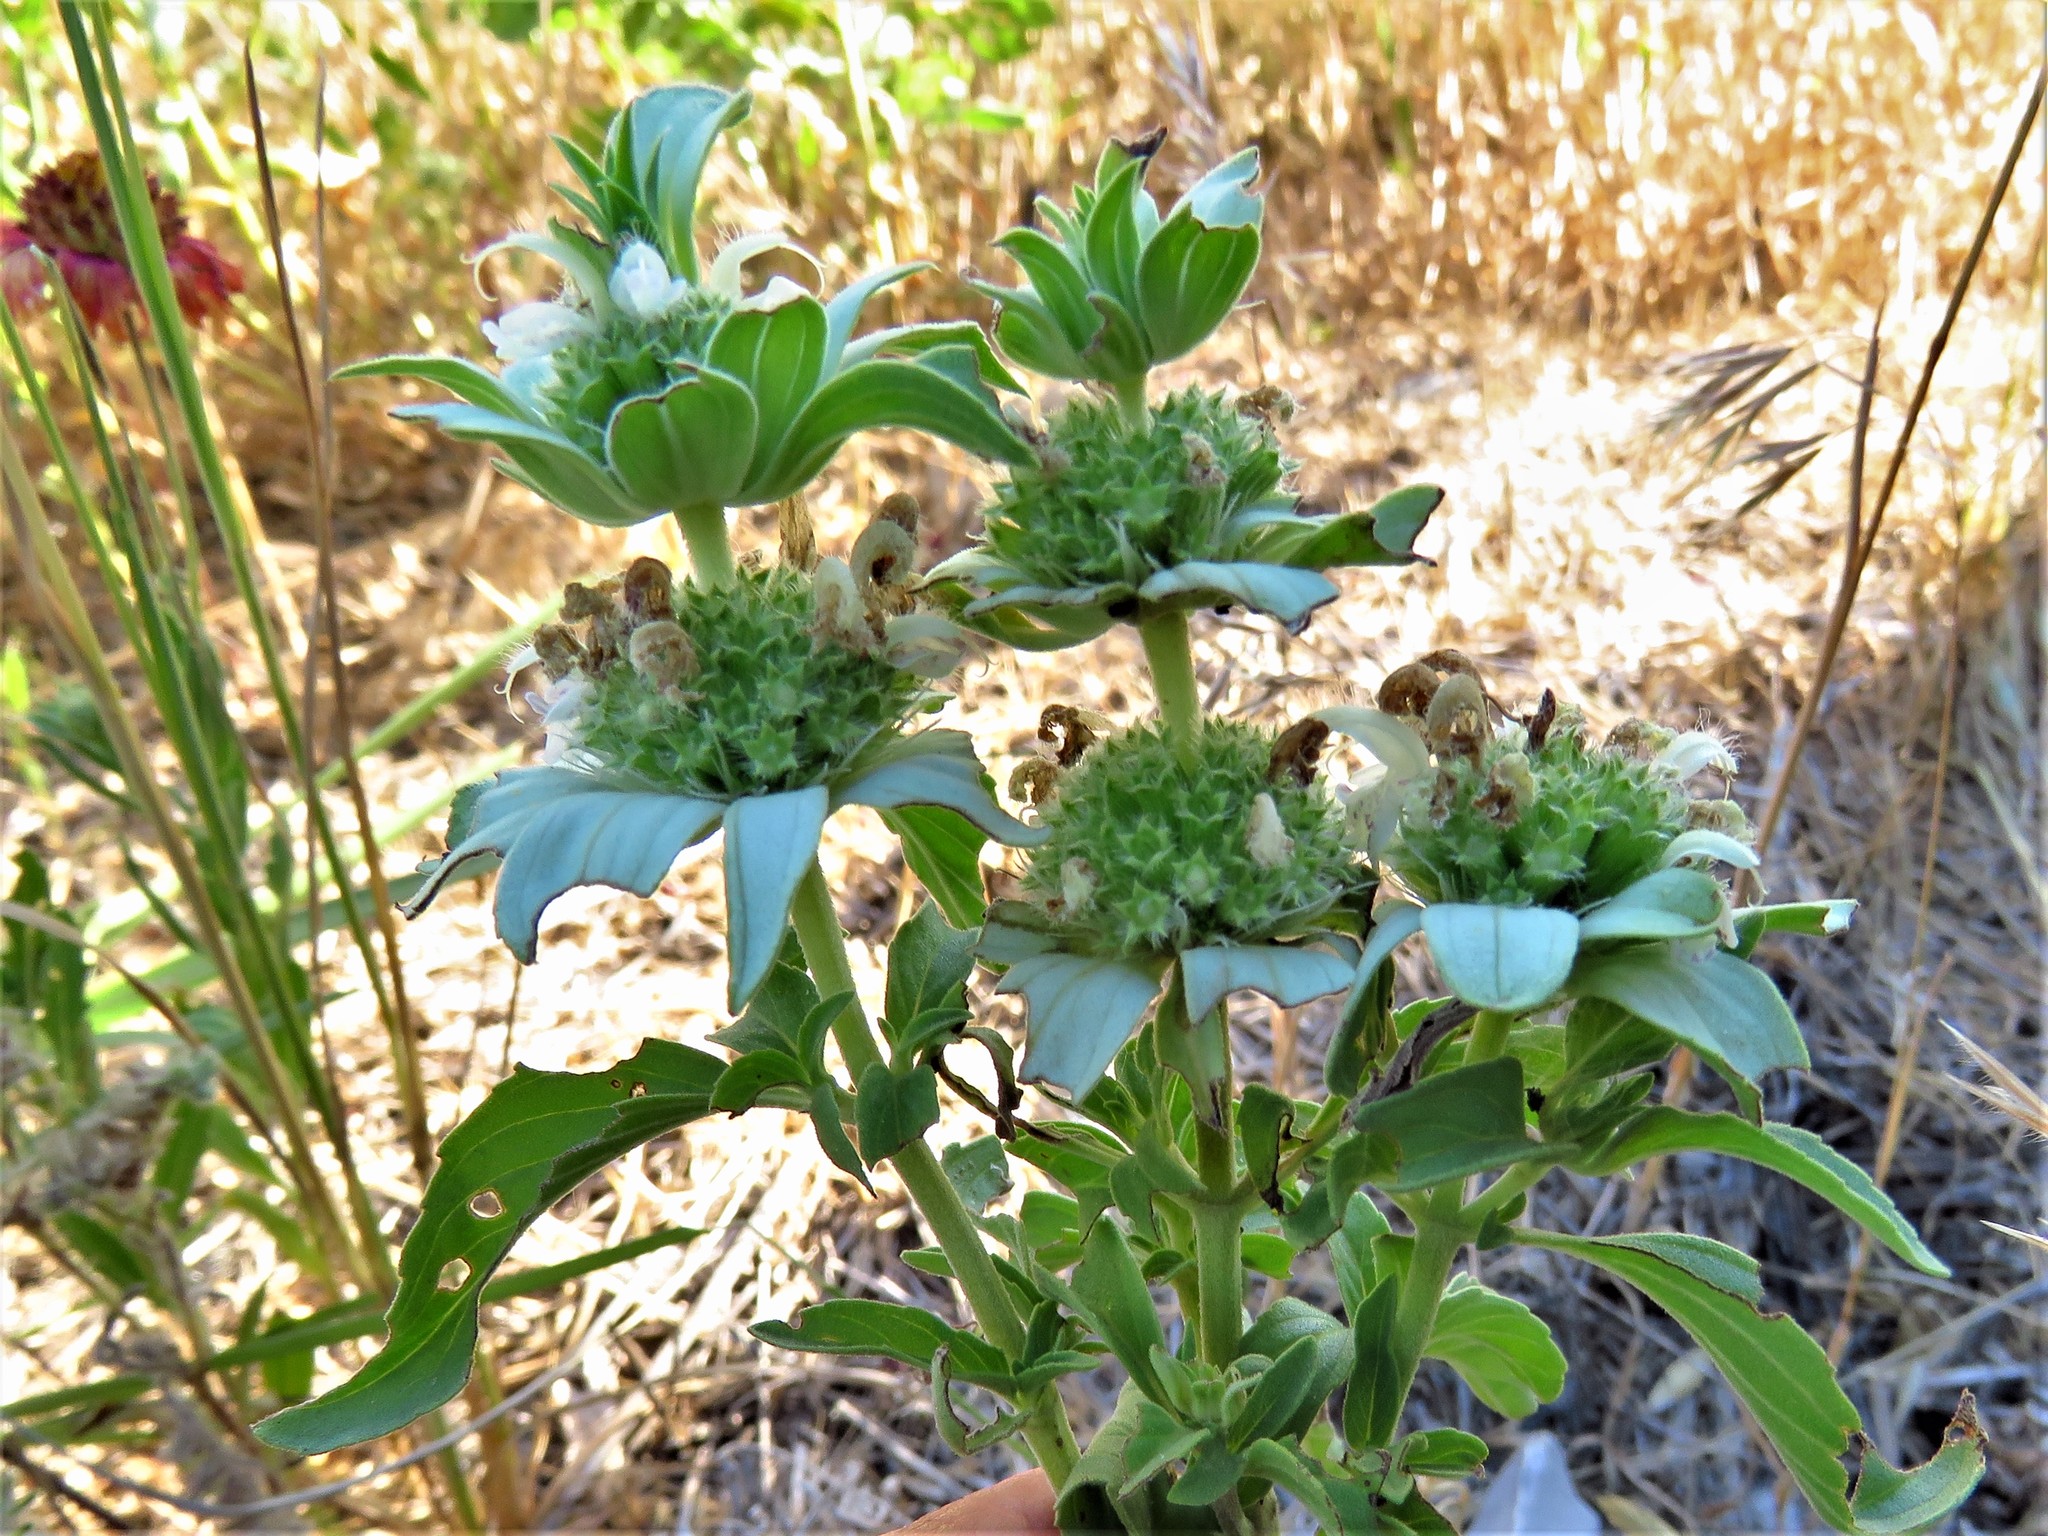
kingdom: Plantae
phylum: Tracheophyta
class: Magnoliopsida
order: Lamiales
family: Lamiaceae
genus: Monarda
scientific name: Monarda punctata
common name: Dotted monarda
